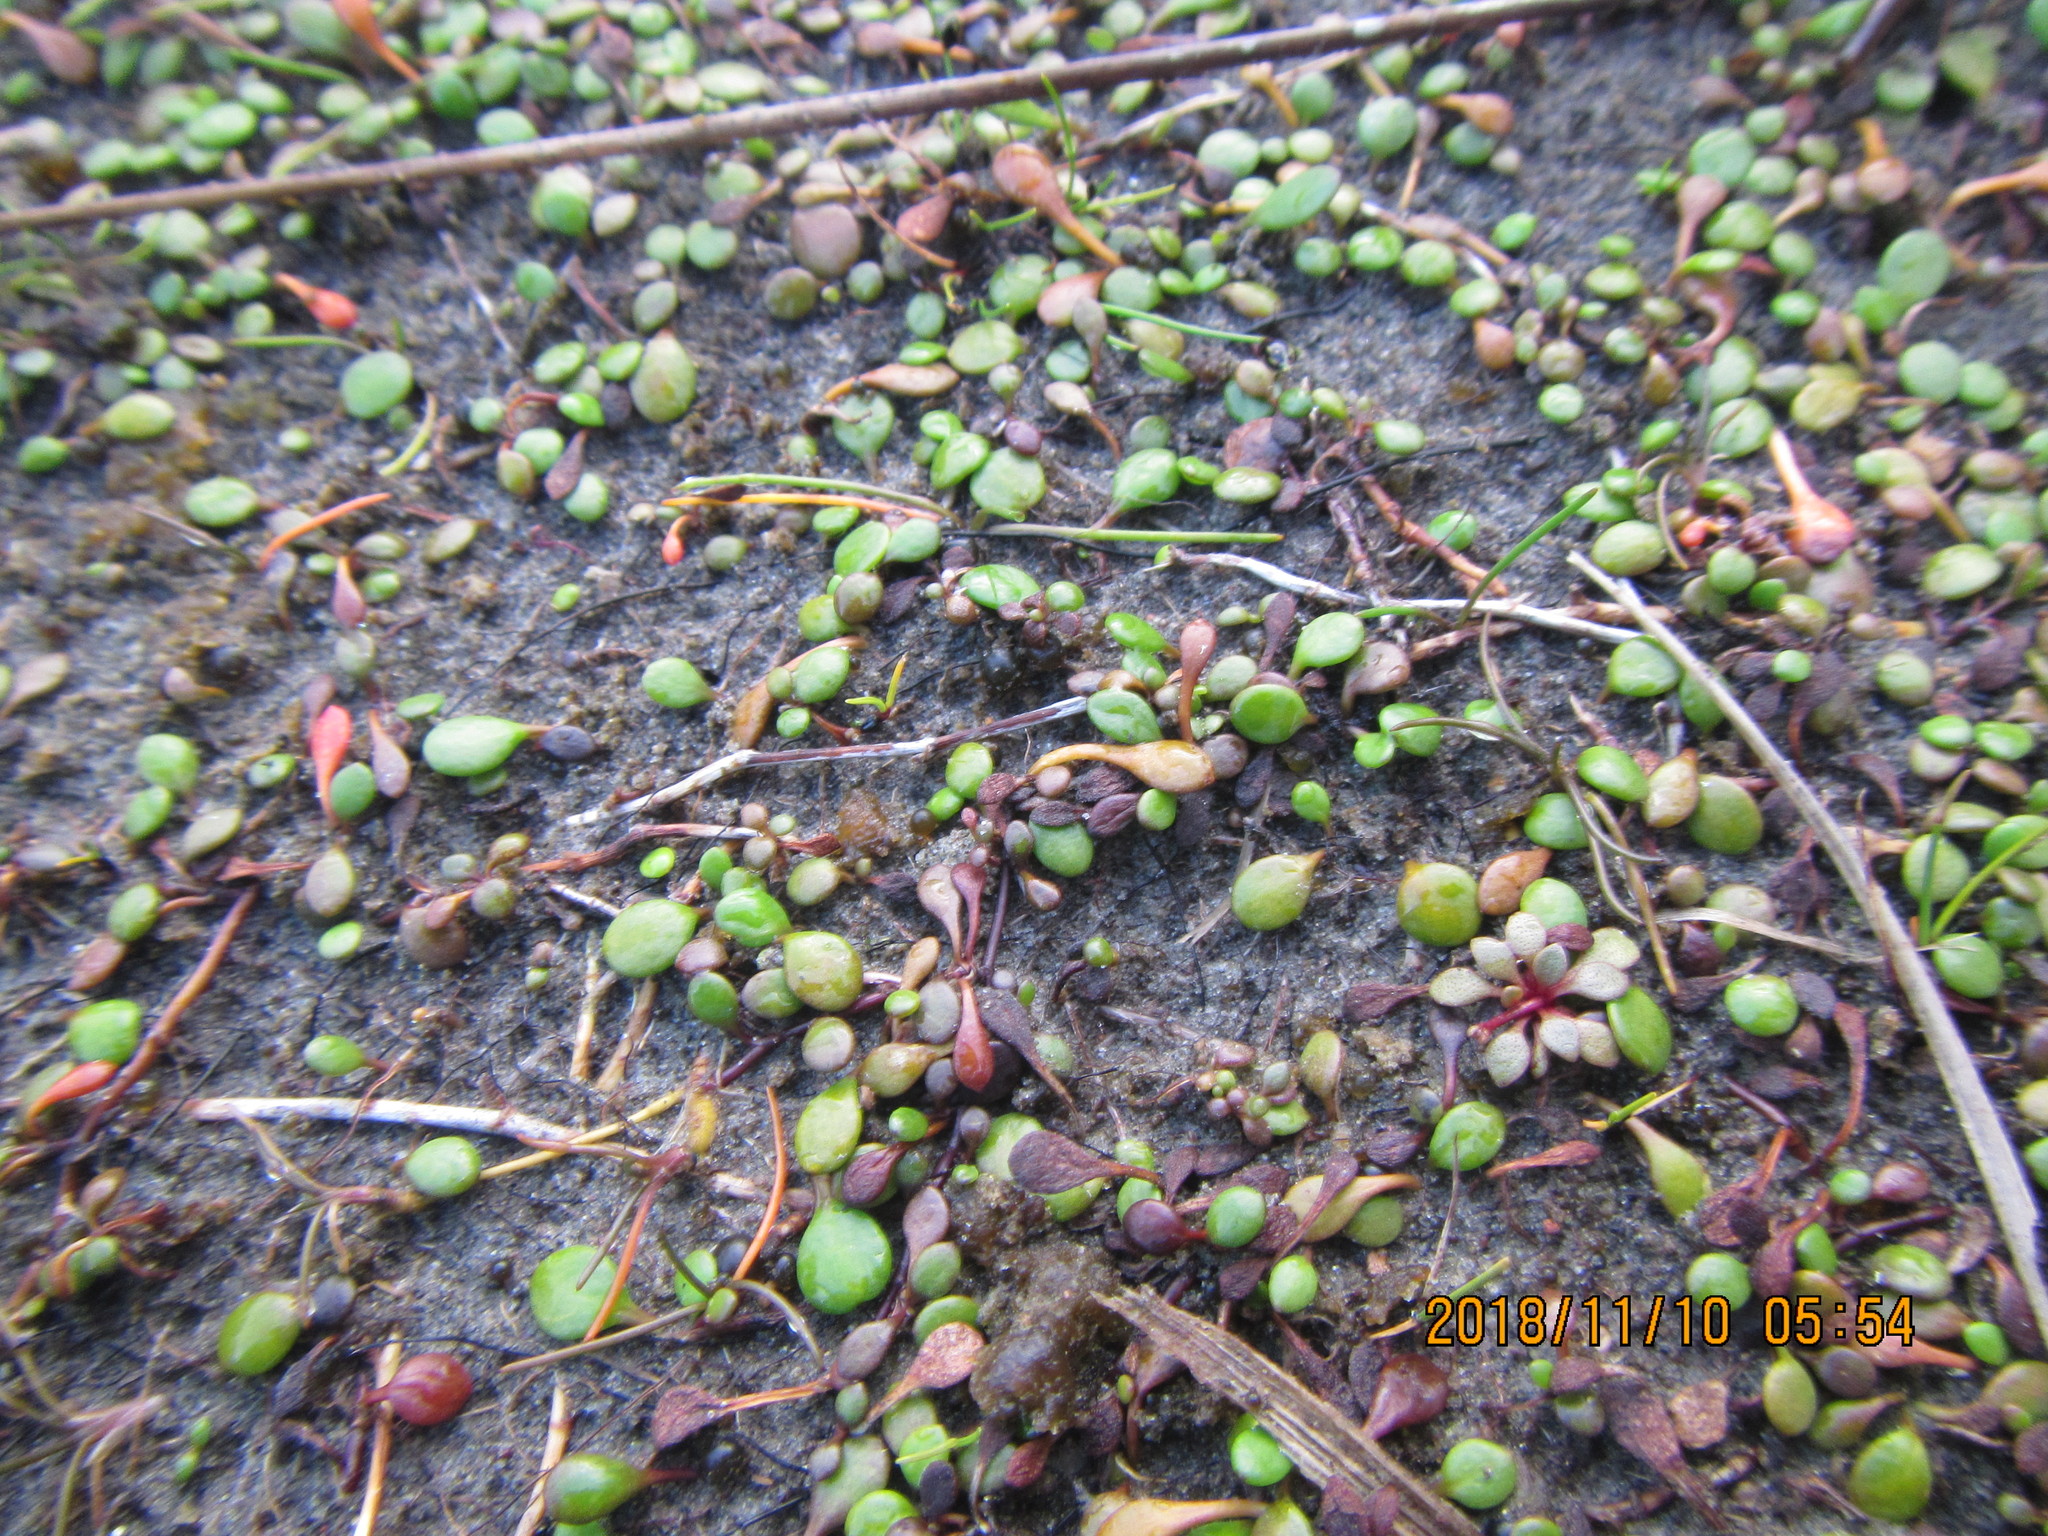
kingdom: Plantae
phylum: Tracheophyta
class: Magnoliopsida
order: Asterales
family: Goodeniaceae
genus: Goodenia
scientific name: Goodenia heenanii
